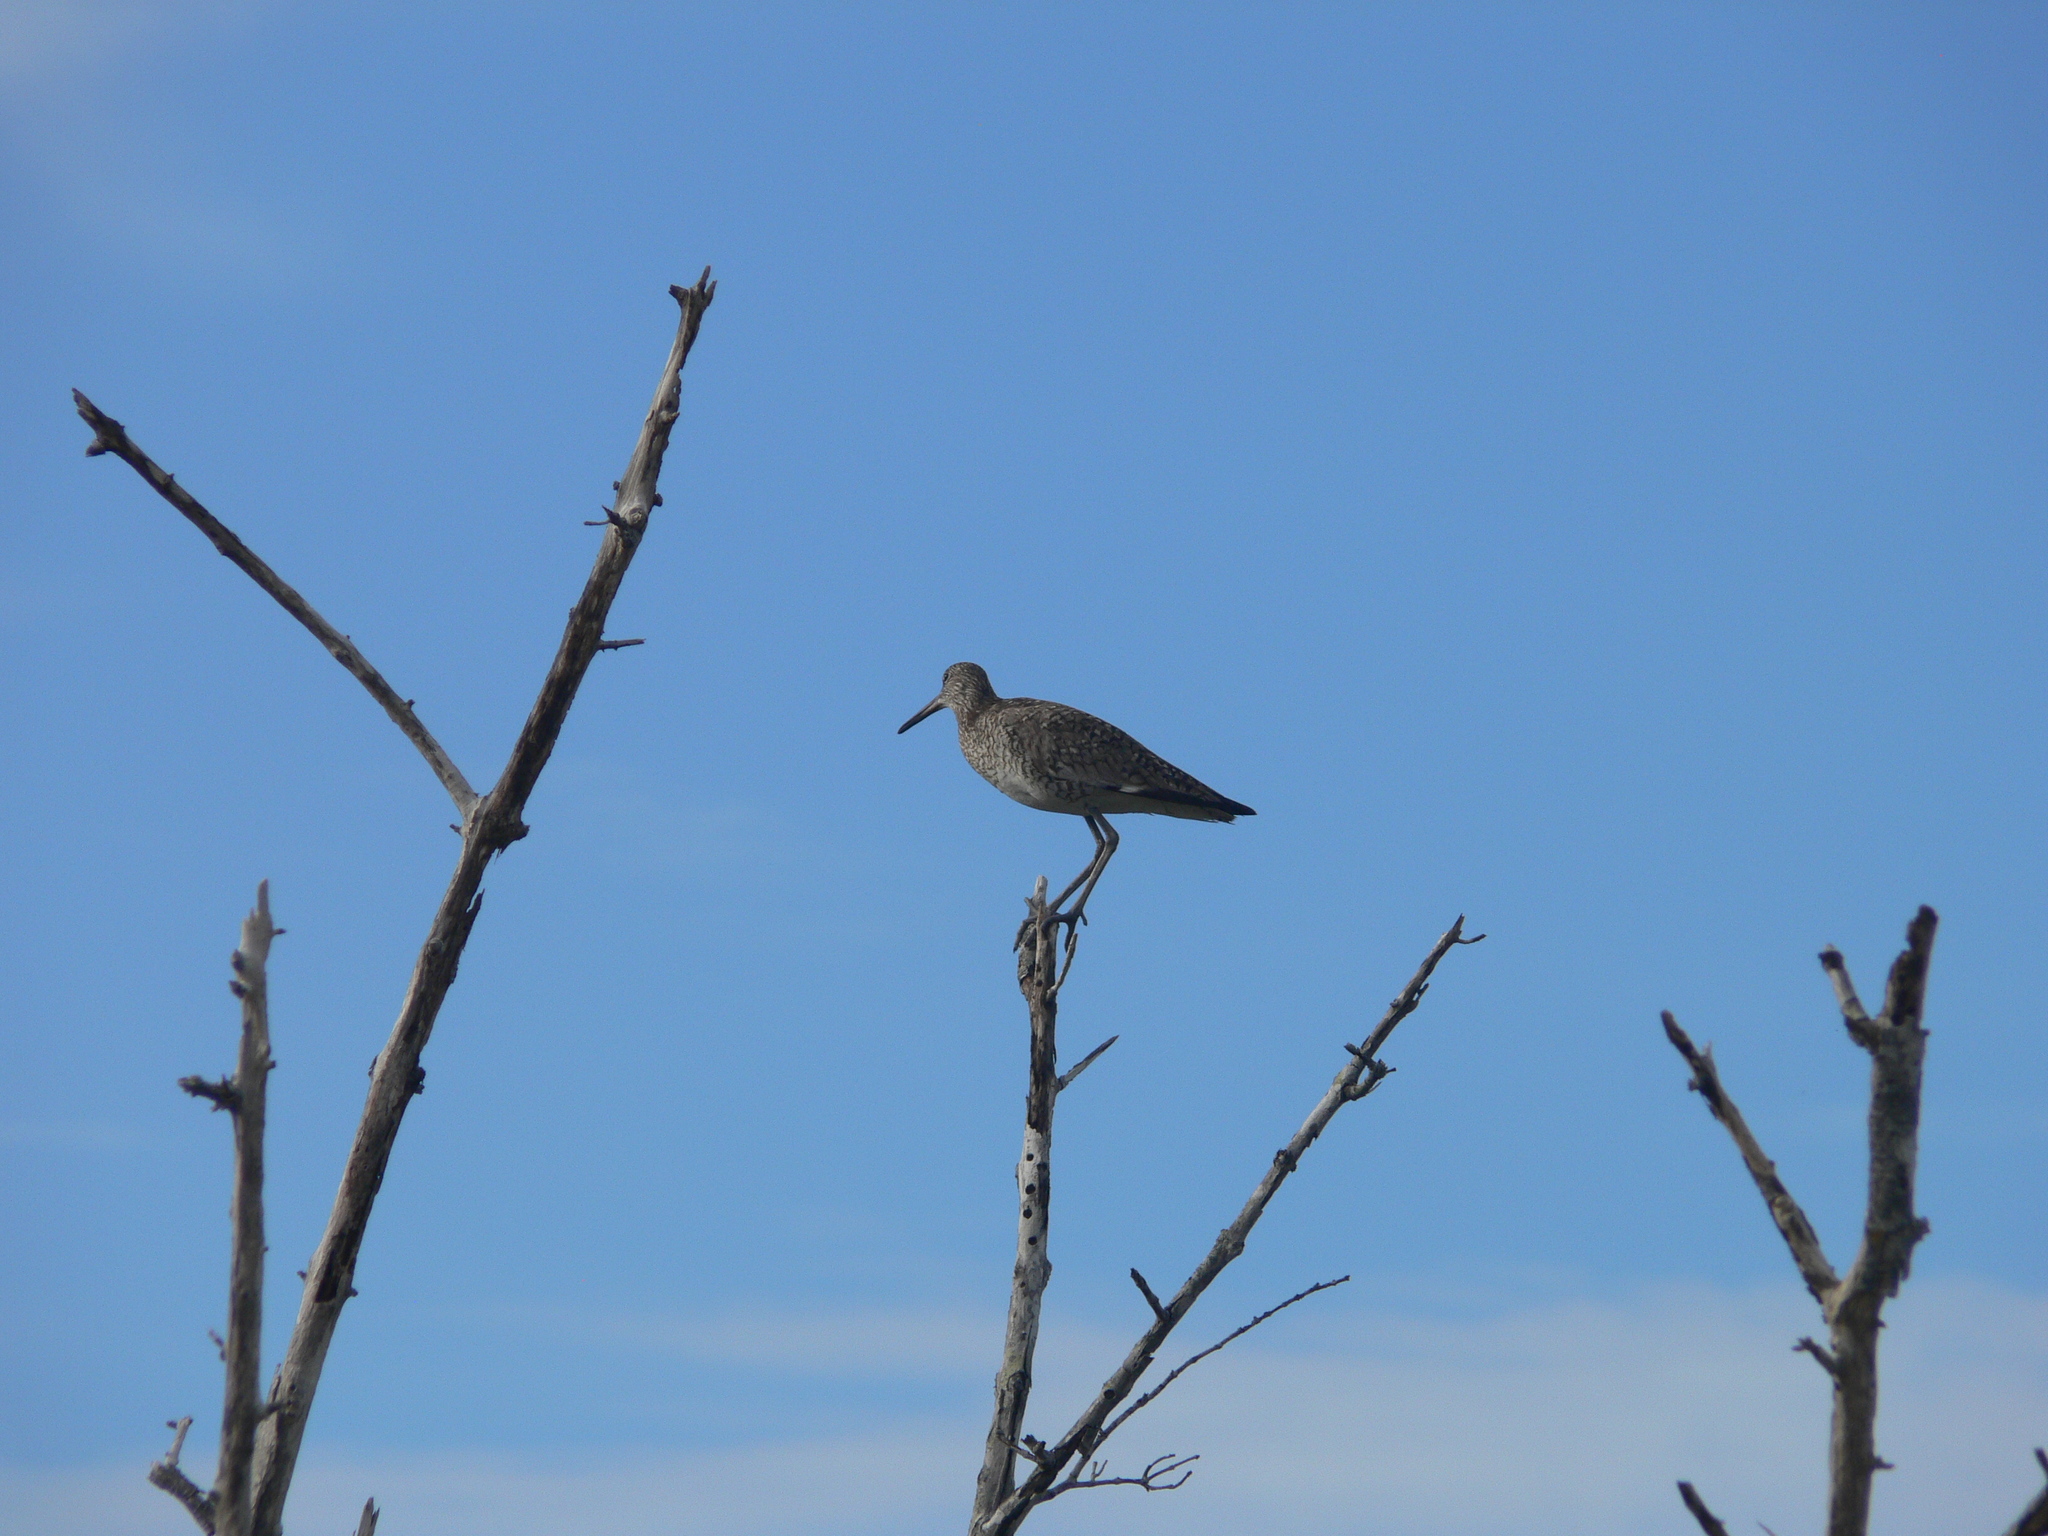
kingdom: Animalia
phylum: Chordata
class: Aves
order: Charadriiformes
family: Scolopacidae
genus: Tringa
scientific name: Tringa semipalmata
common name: Willet
